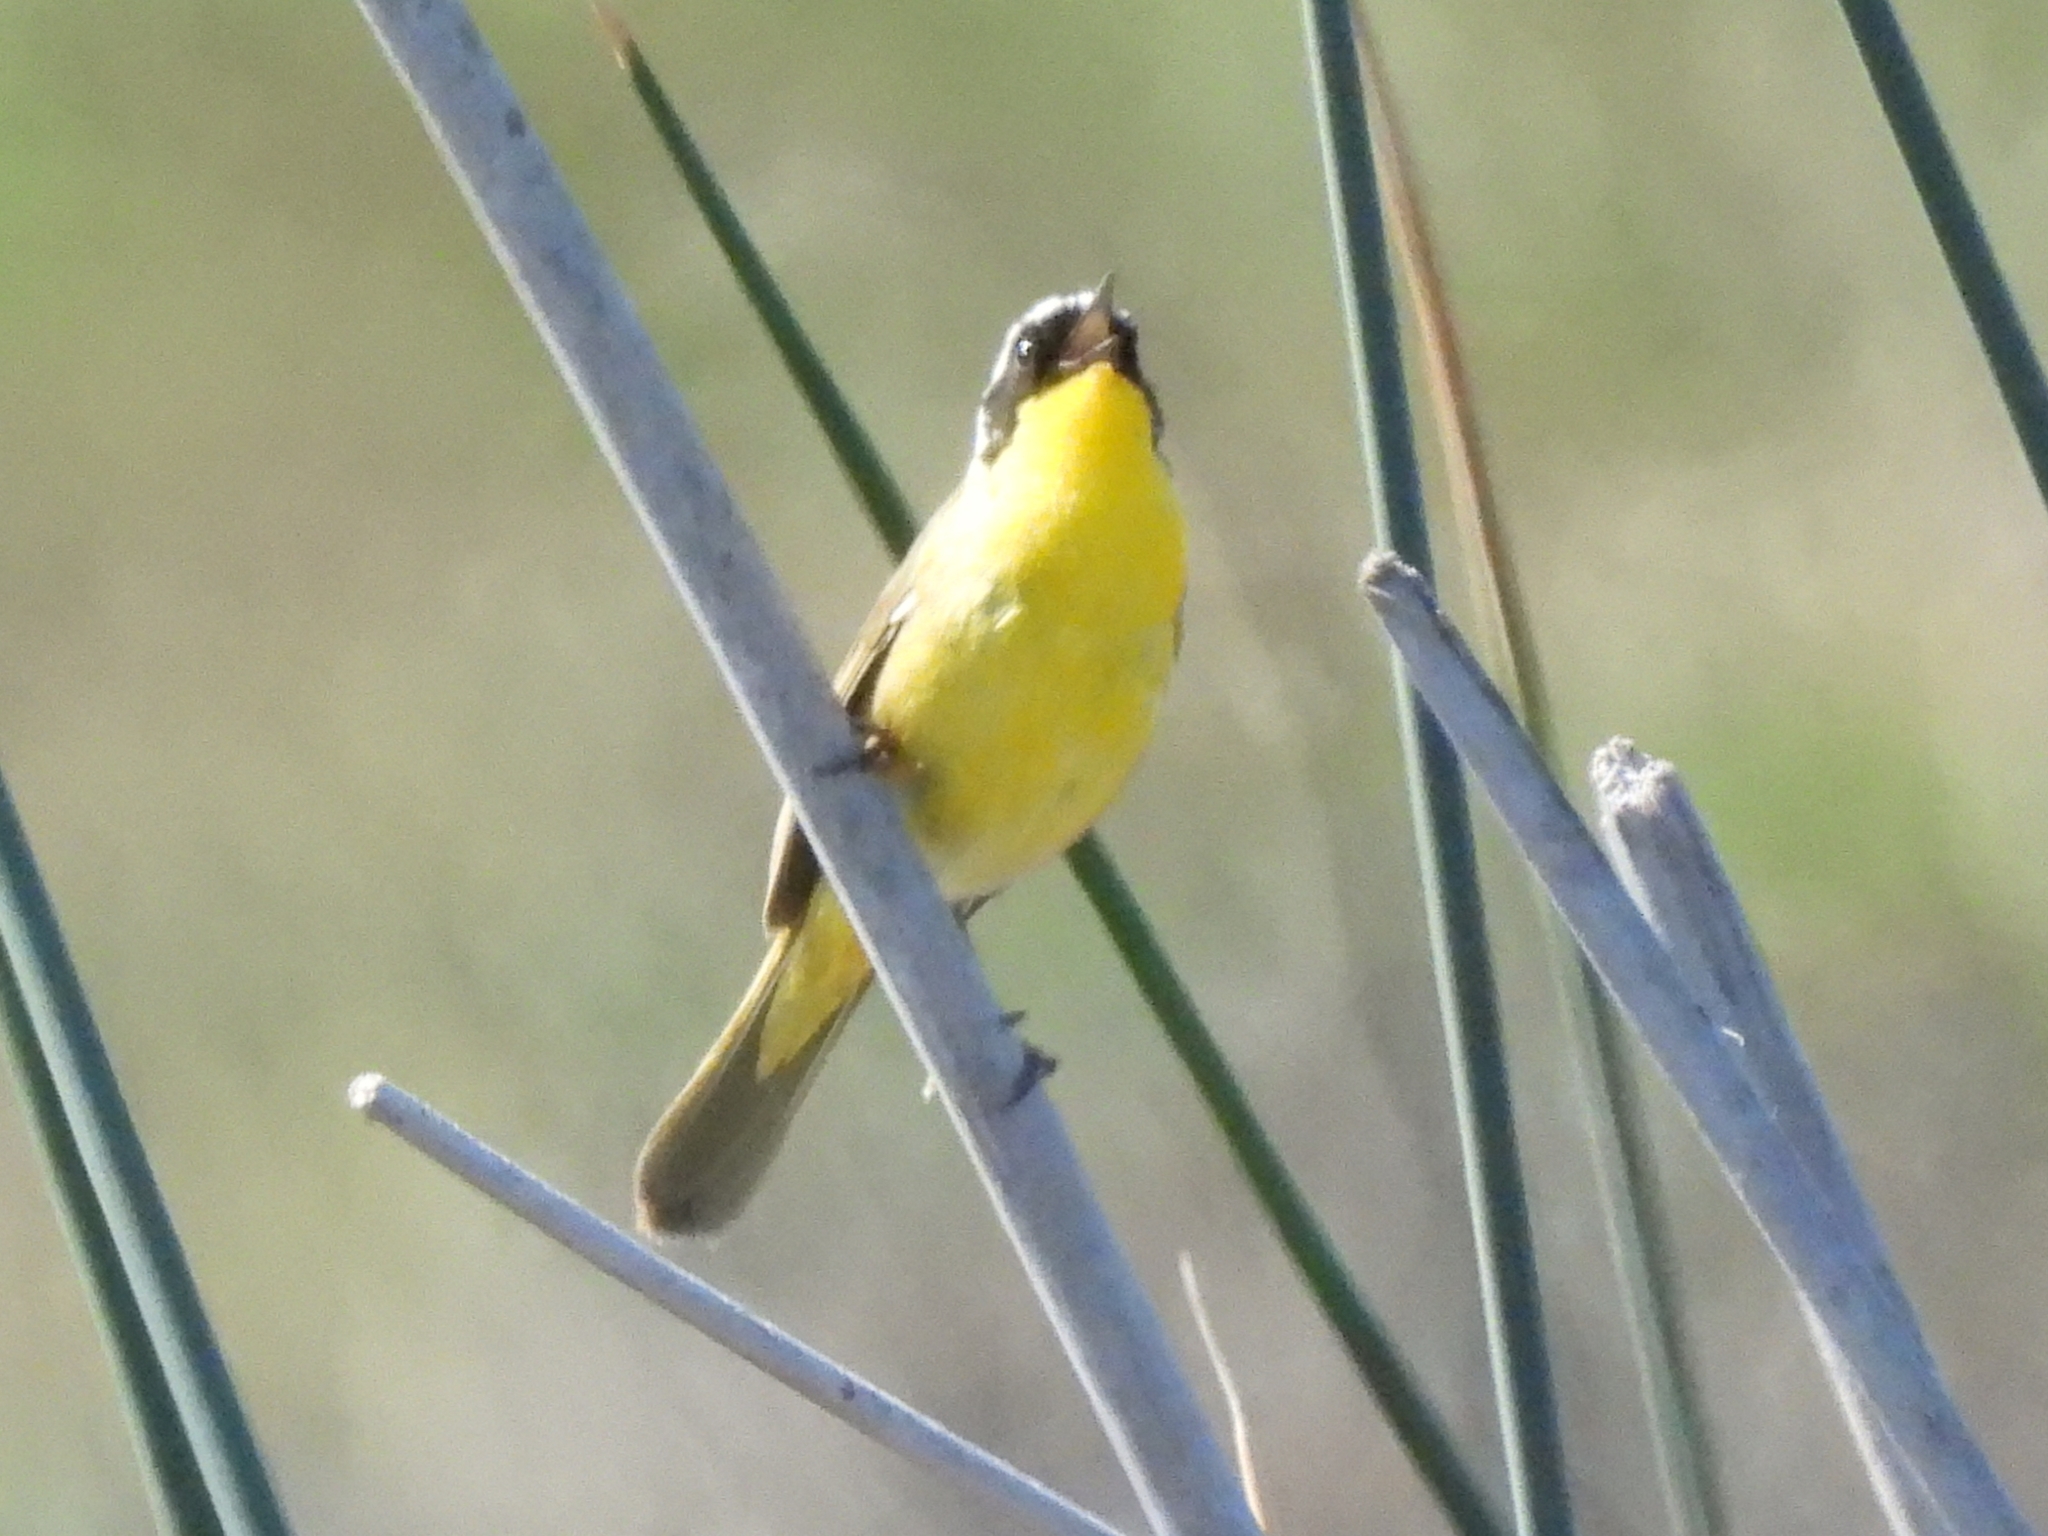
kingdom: Animalia
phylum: Chordata
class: Aves
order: Passeriformes
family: Parulidae
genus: Geothlypis
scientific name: Geothlypis trichas
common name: Common yellowthroat
